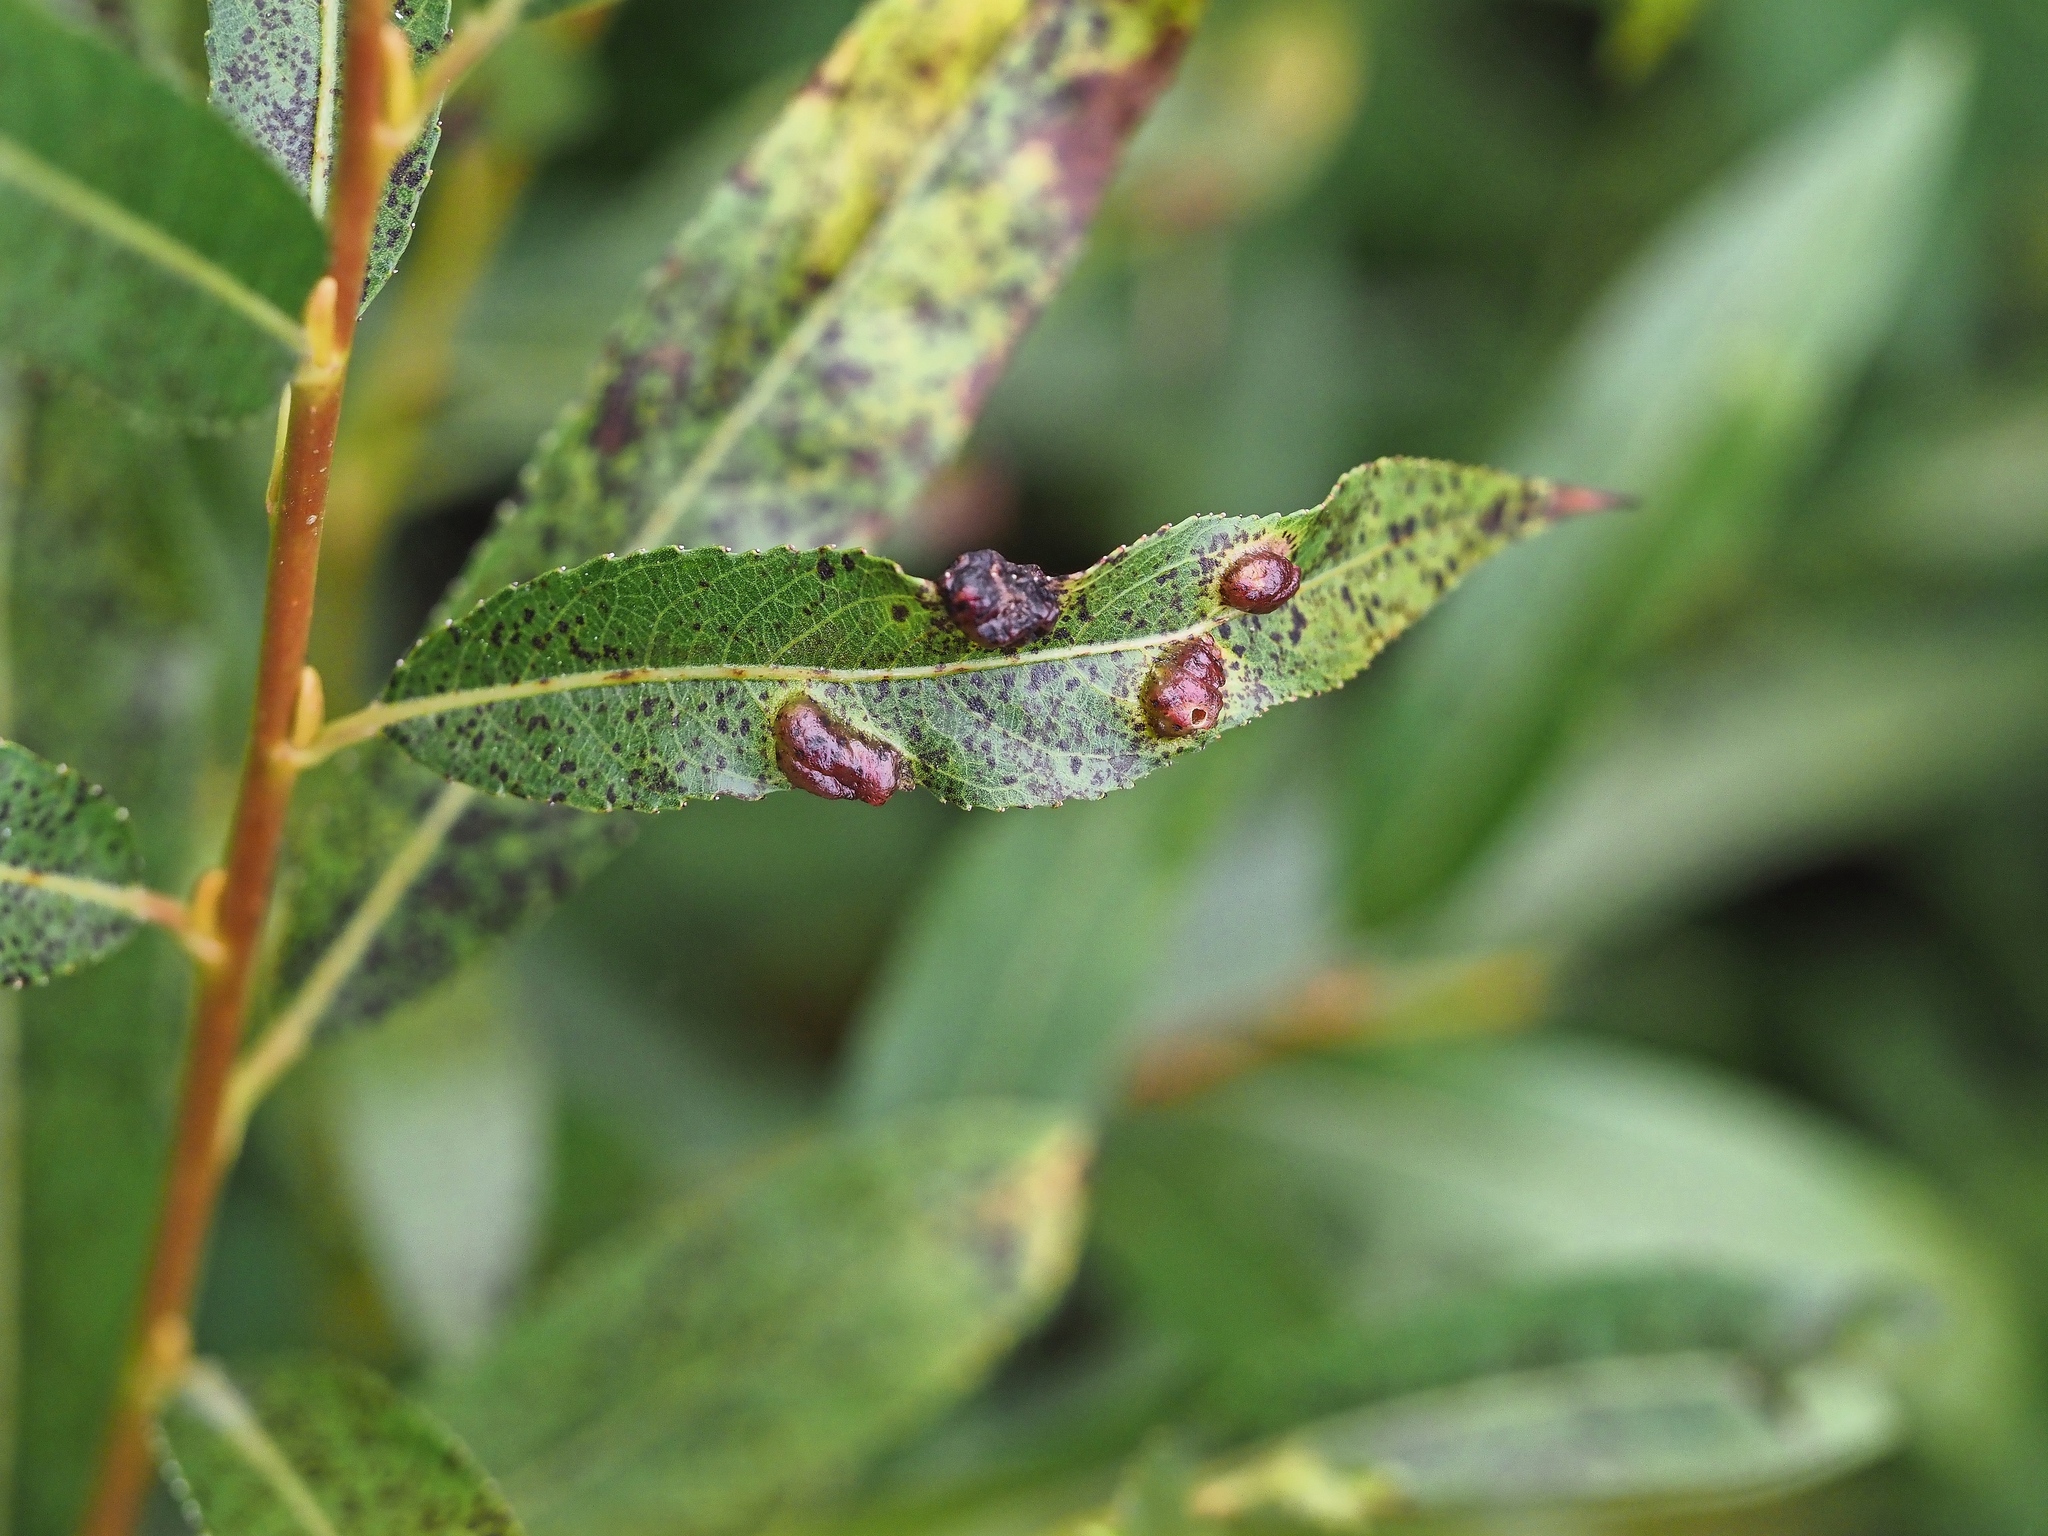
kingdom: Animalia
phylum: Arthropoda
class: Insecta
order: Hymenoptera
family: Tenthredinidae
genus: Pontania
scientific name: Pontania proxima
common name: Common sawfly
